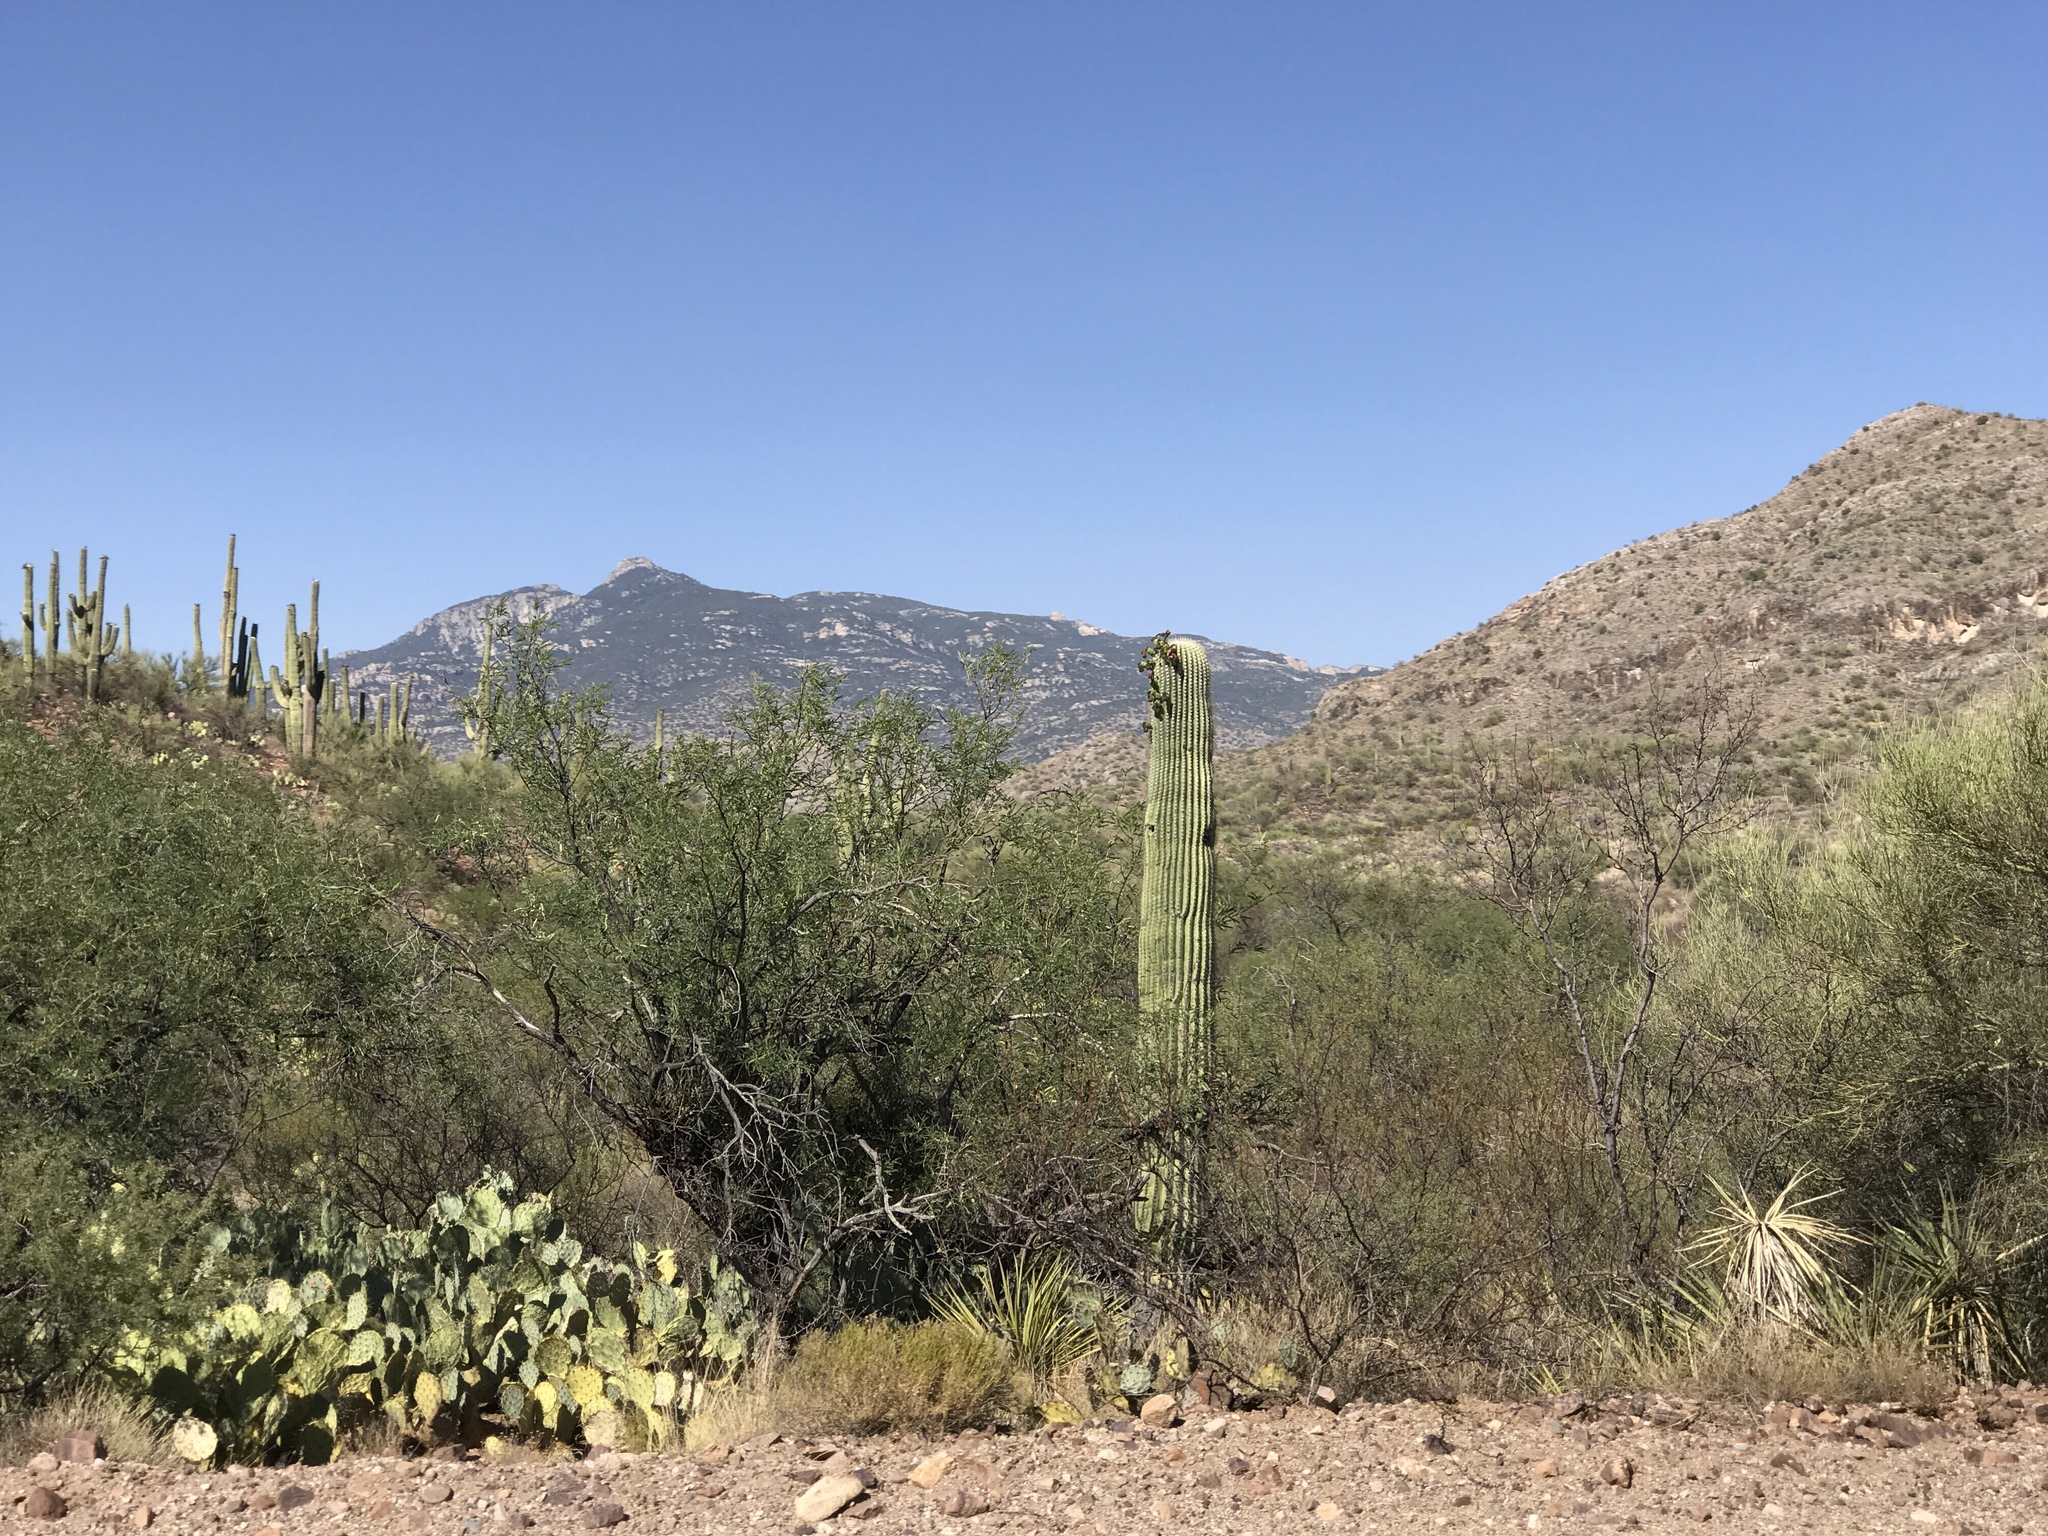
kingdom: Plantae
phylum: Tracheophyta
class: Magnoliopsida
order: Caryophyllales
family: Cactaceae
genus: Carnegiea
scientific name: Carnegiea gigantea
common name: Saguaro
